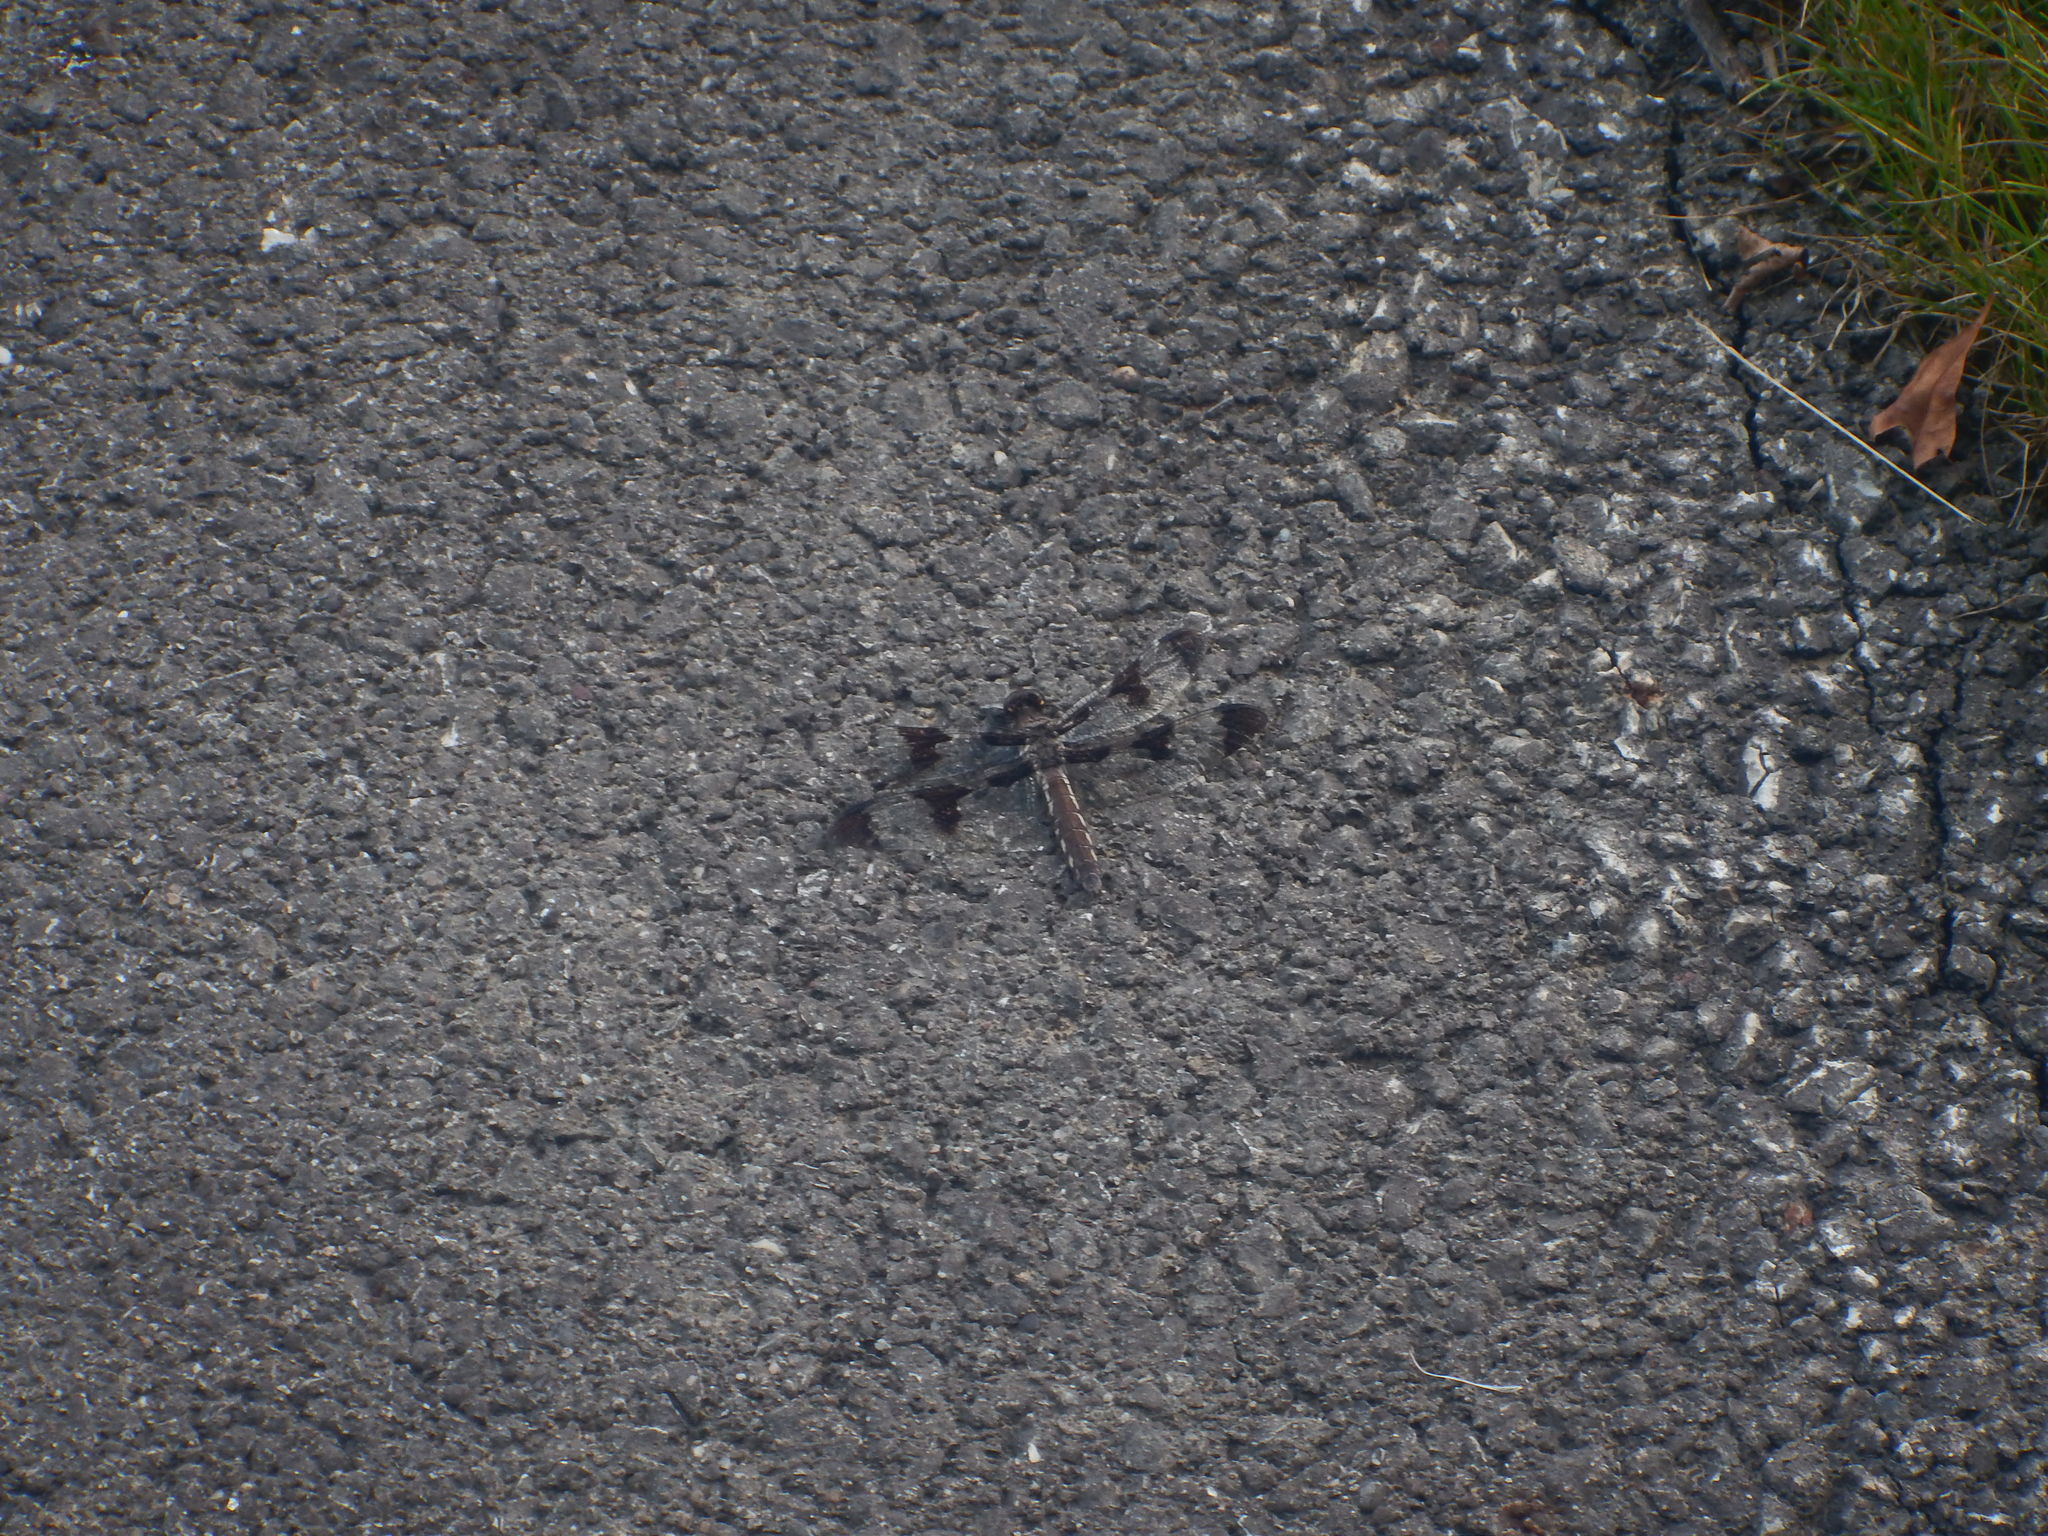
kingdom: Animalia
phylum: Arthropoda
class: Insecta
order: Odonata
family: Libellulidae
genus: Plathemis
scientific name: Plathemis lydia
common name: Common whitetail
